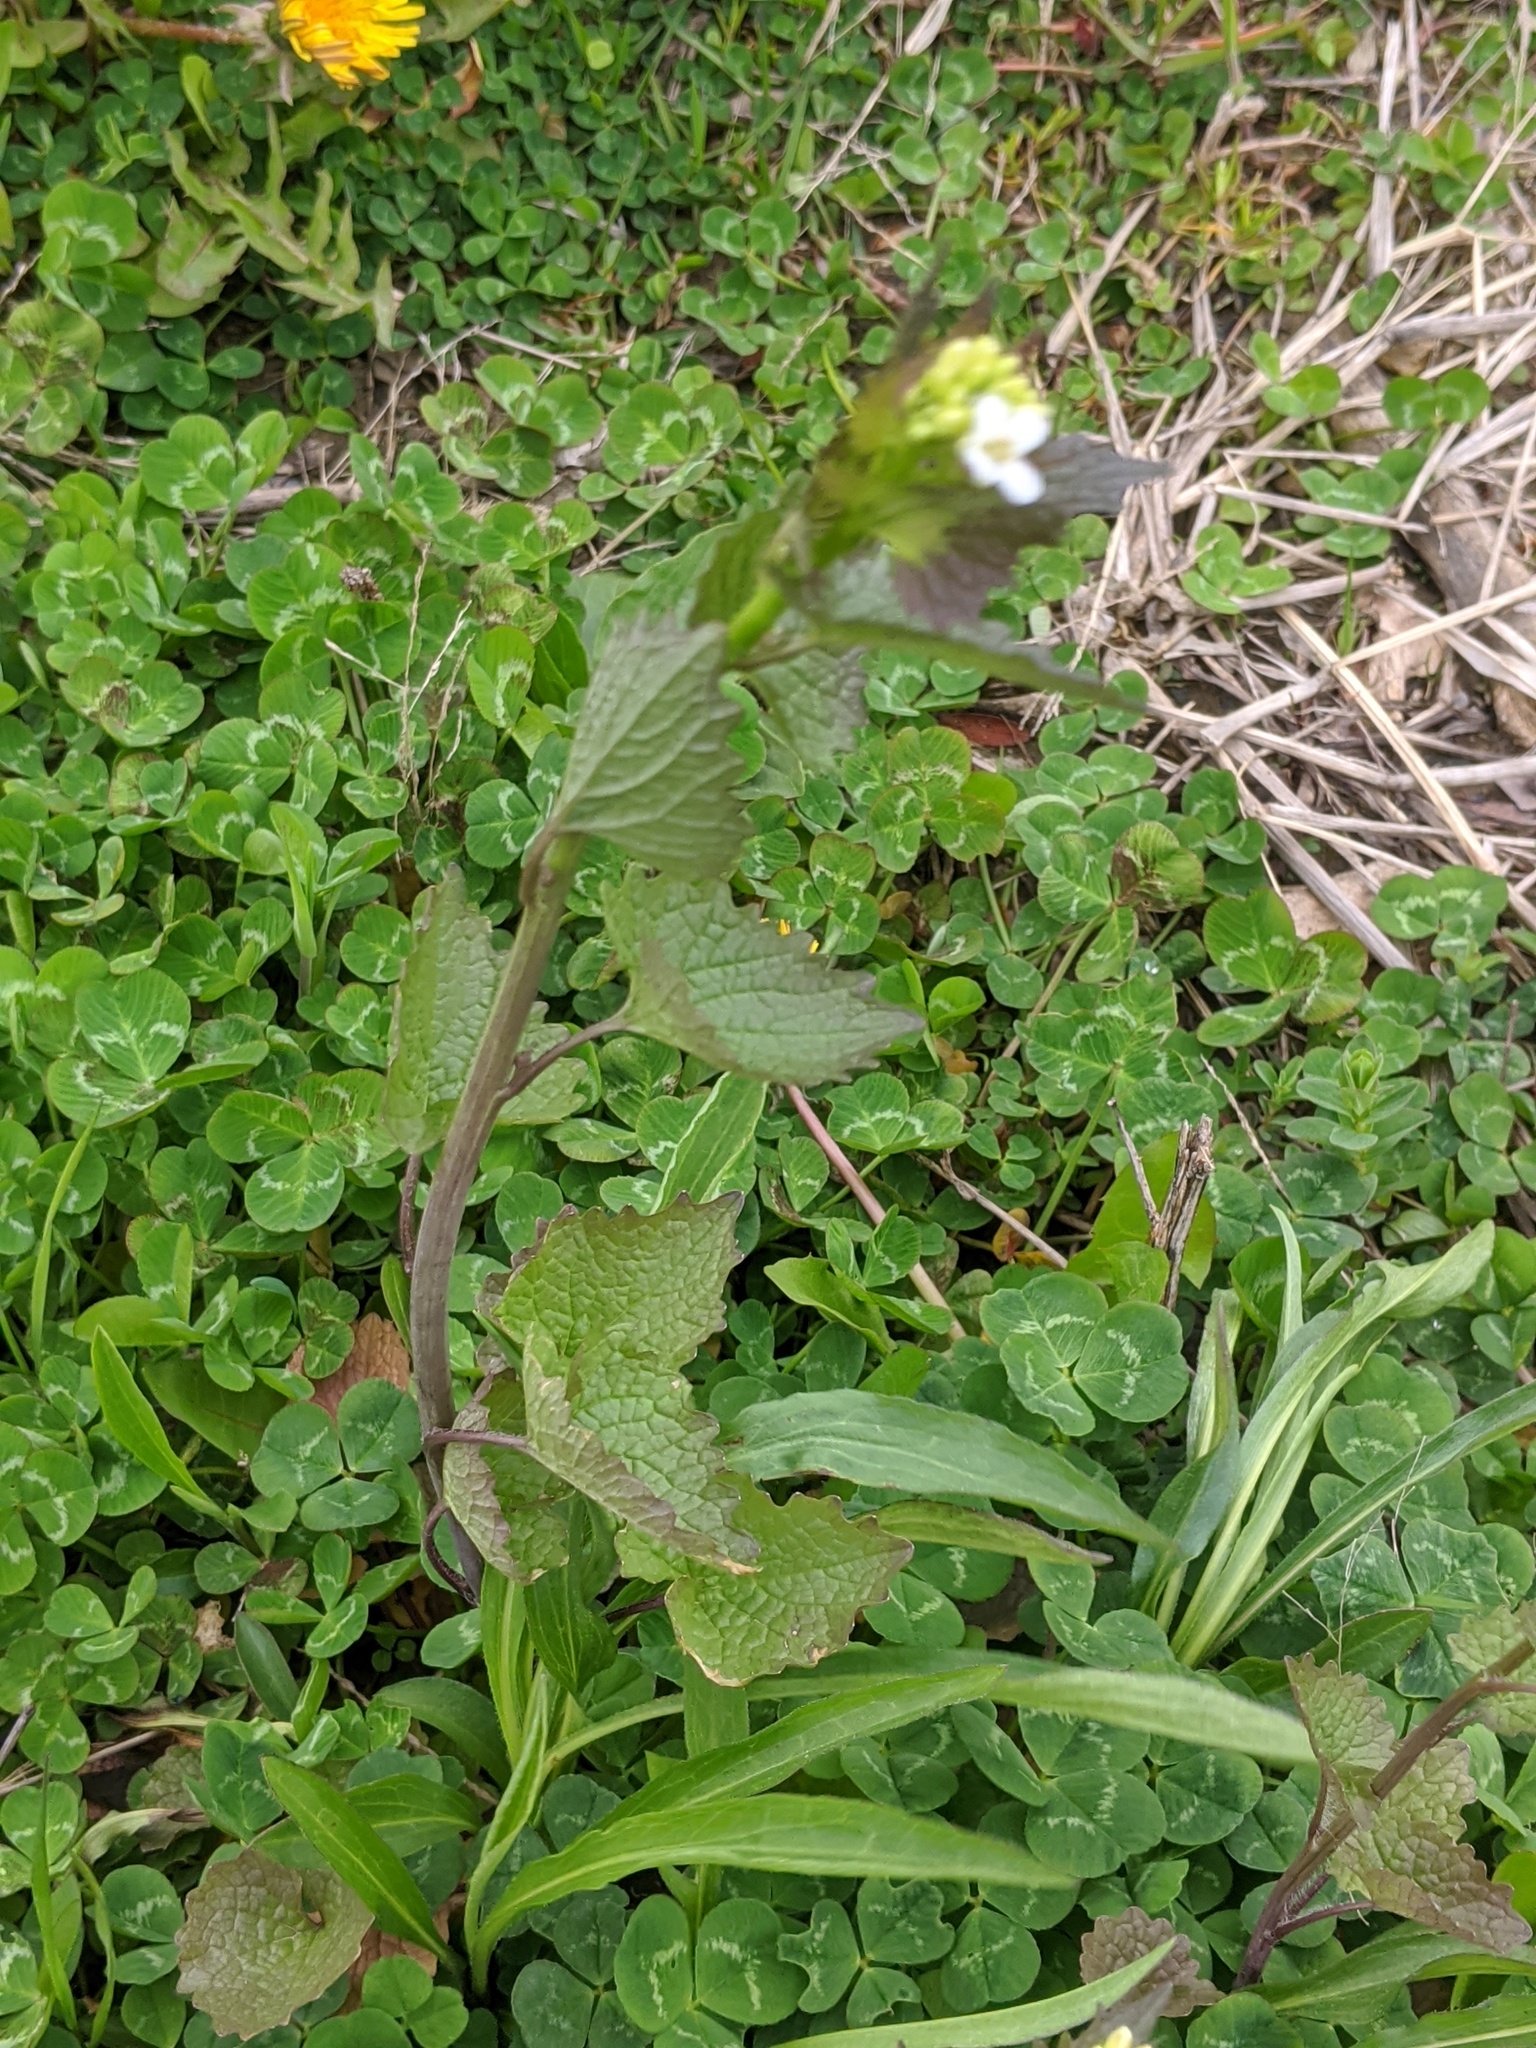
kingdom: Plantae
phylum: Tracheophyta
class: Magnoliopsida
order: Brassicales
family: Brassicaceae
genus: Alliaria
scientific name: Alliaria petiolata
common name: Garlic mustard
